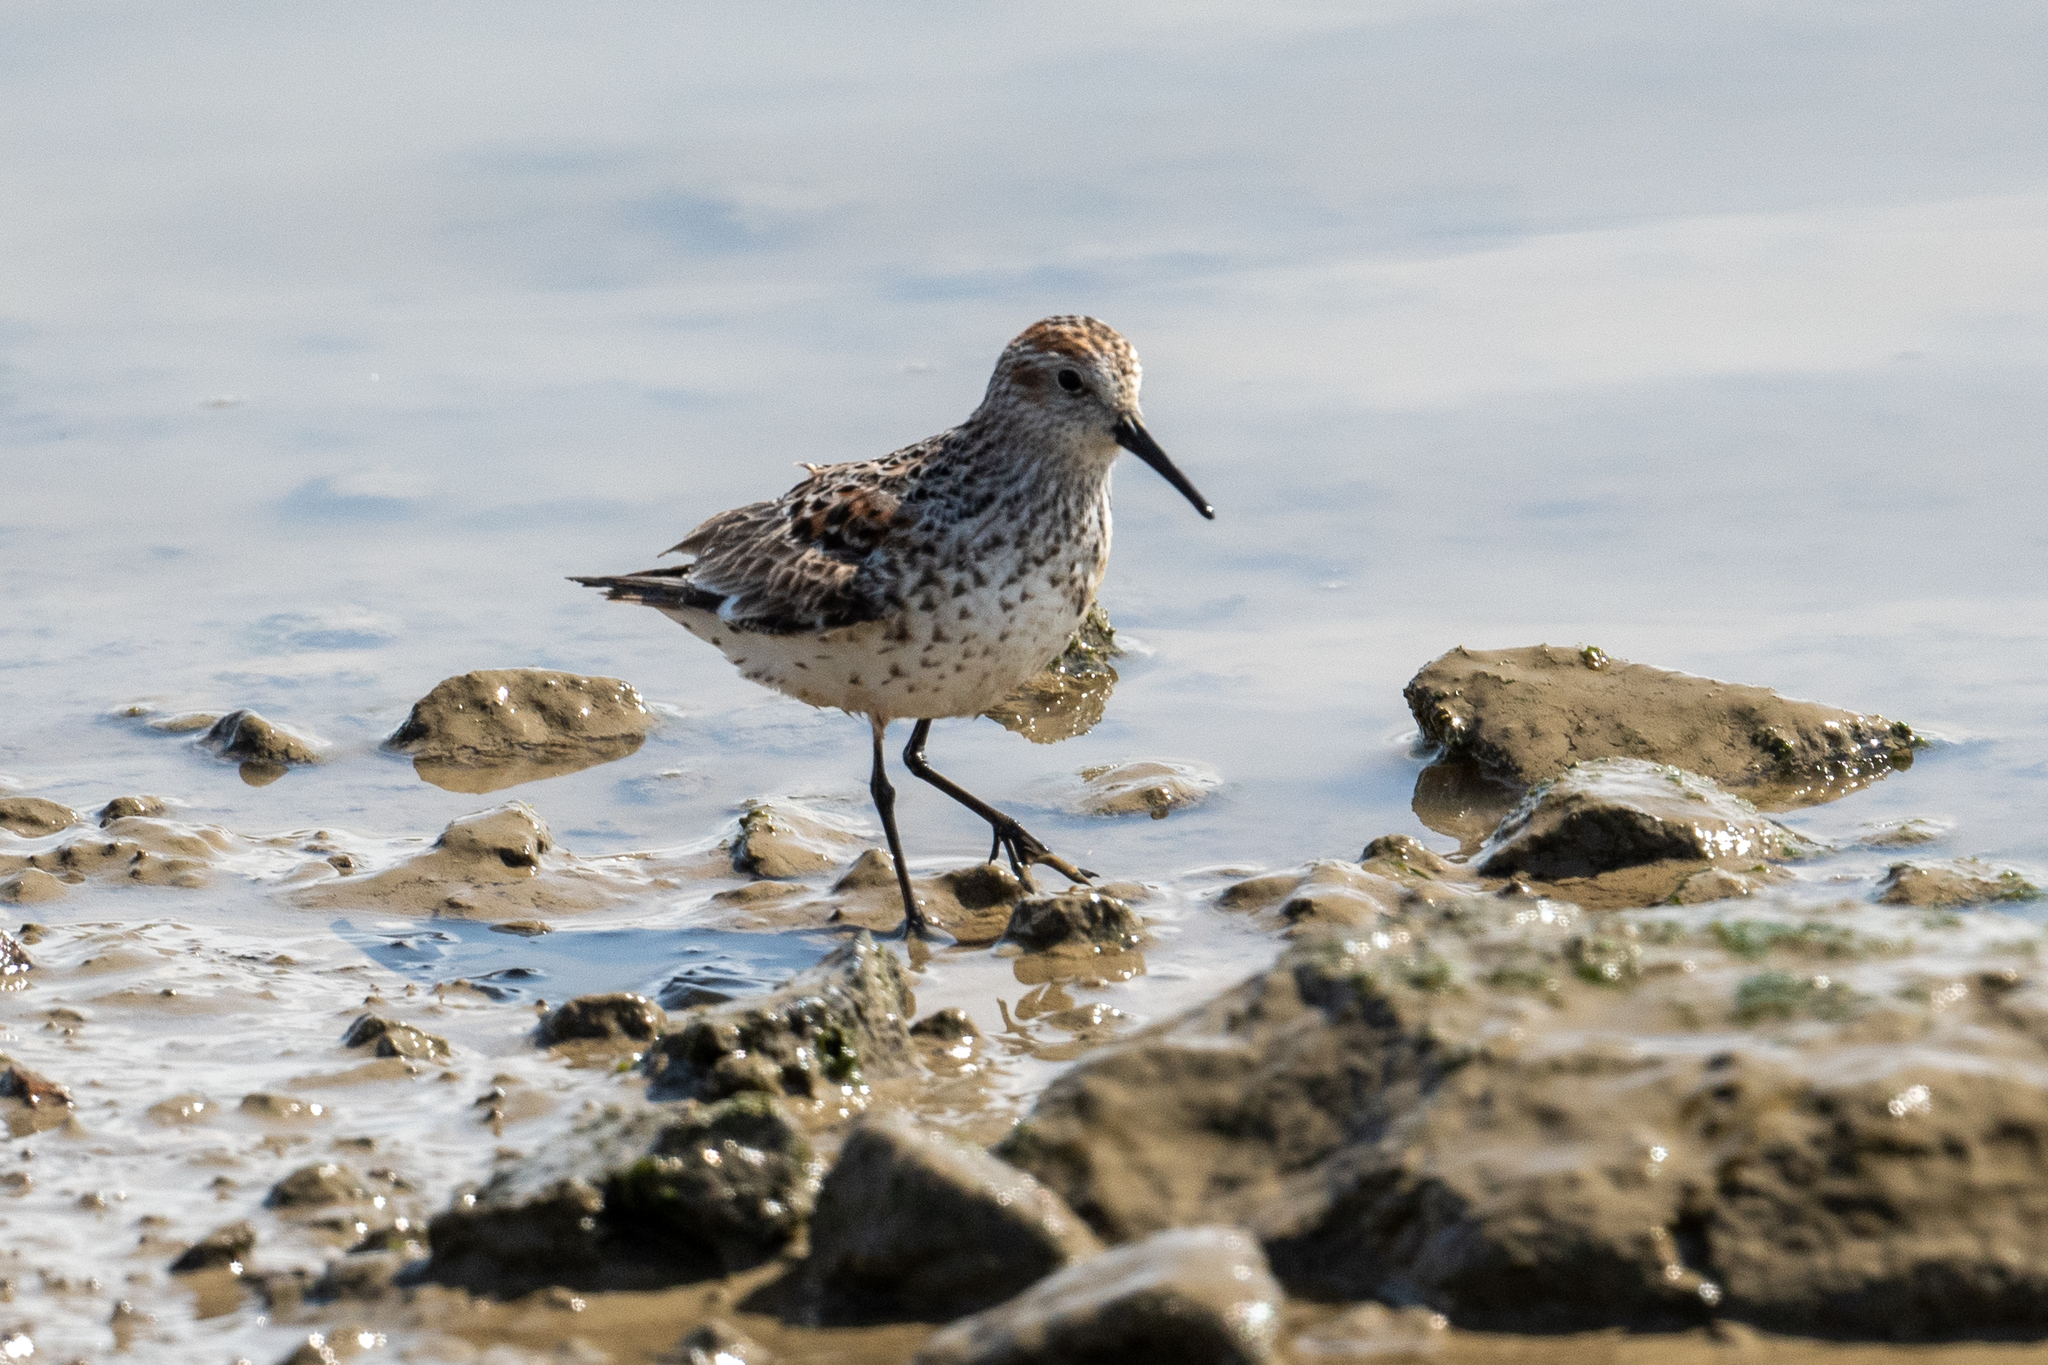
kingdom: Animalia
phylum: Chordata
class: Aves
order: Charadriiformes
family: Scolopacidae
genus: Calidris
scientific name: Calidris mauri
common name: Western sandpiper
